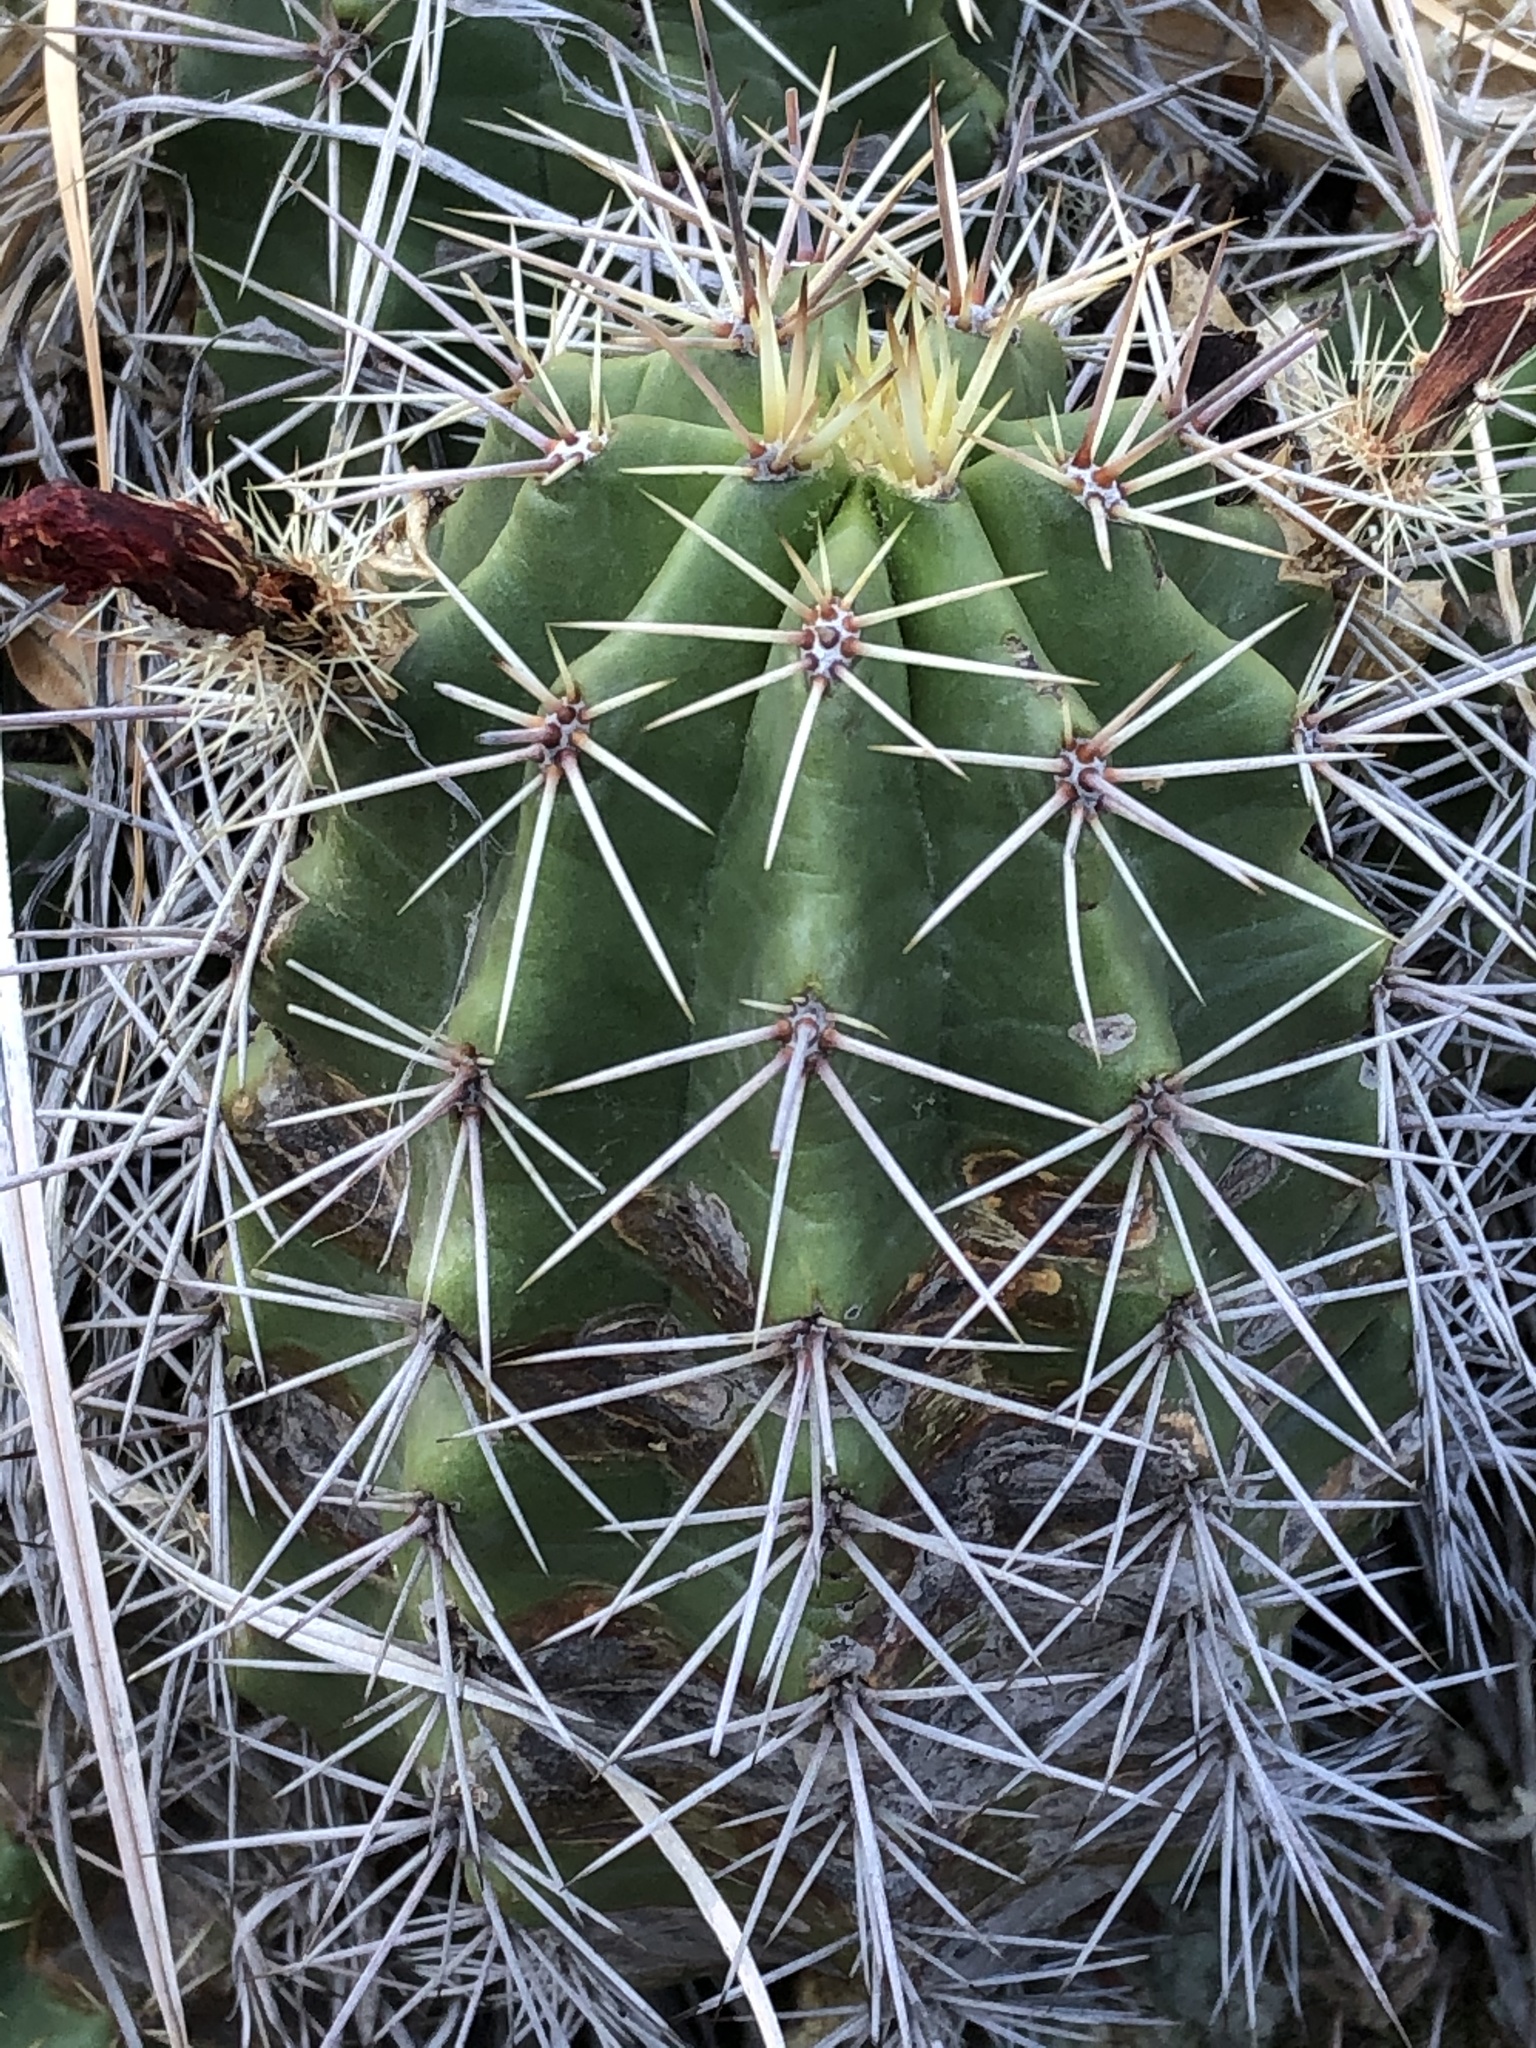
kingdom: Plantae
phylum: Tracheophyta
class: Magnoliopsida
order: Caryophyllales
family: Cactaceae
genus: Echinocereus
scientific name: Echinocereus coccineus
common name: Scarlet hedgehog cactus
